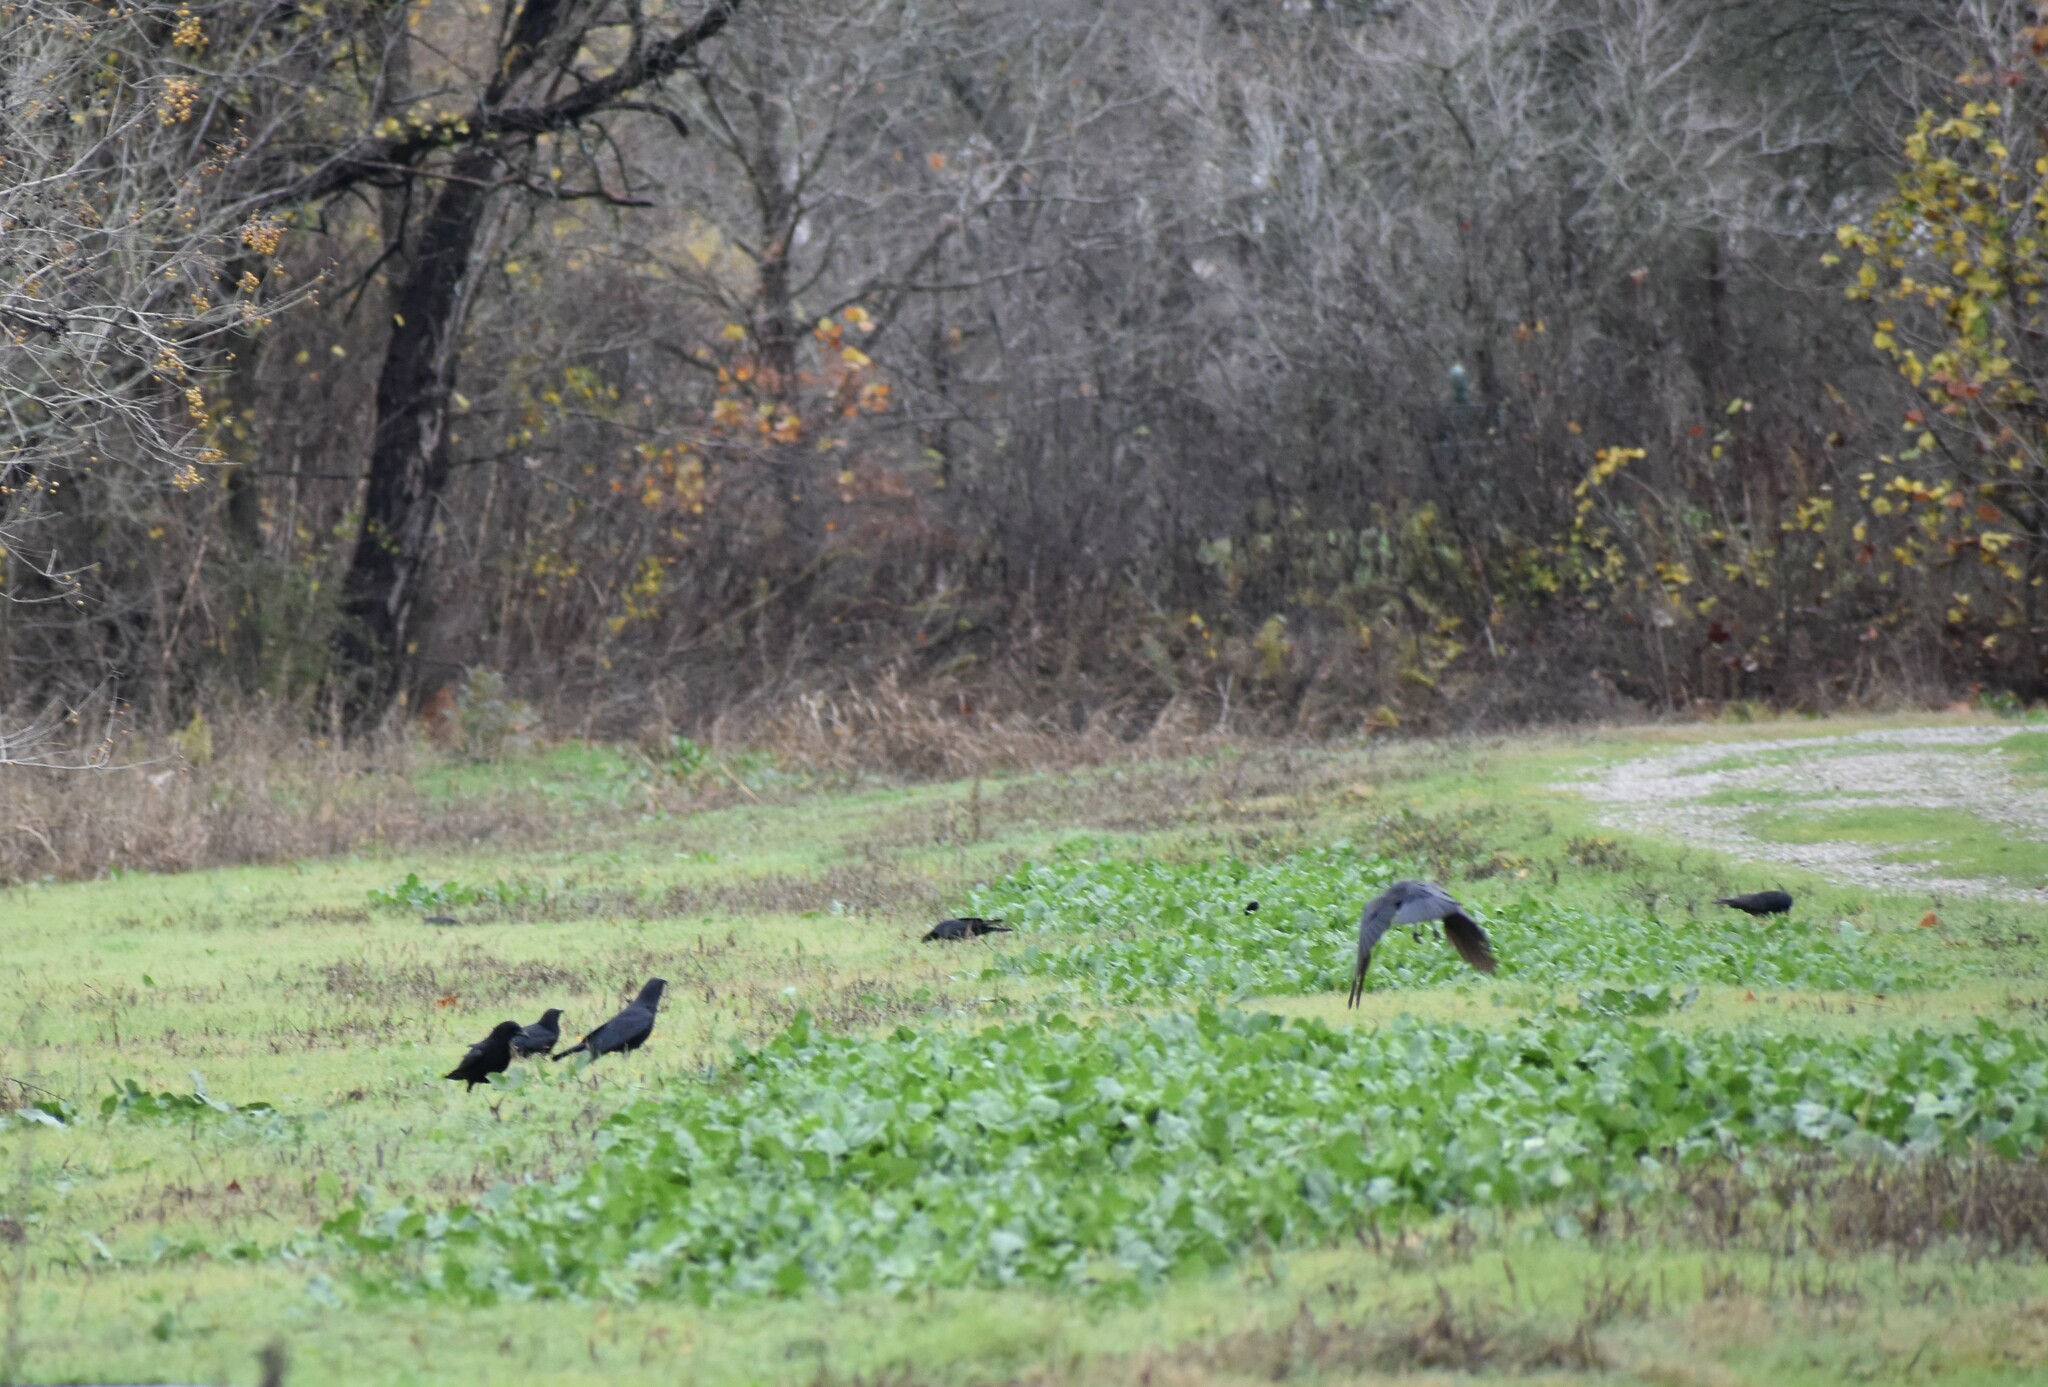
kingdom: Animalia
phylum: Chordata
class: Aves
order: Passeriformes
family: Corvidae
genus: Corvus
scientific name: Corvus brachyrhynchos
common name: American crow
